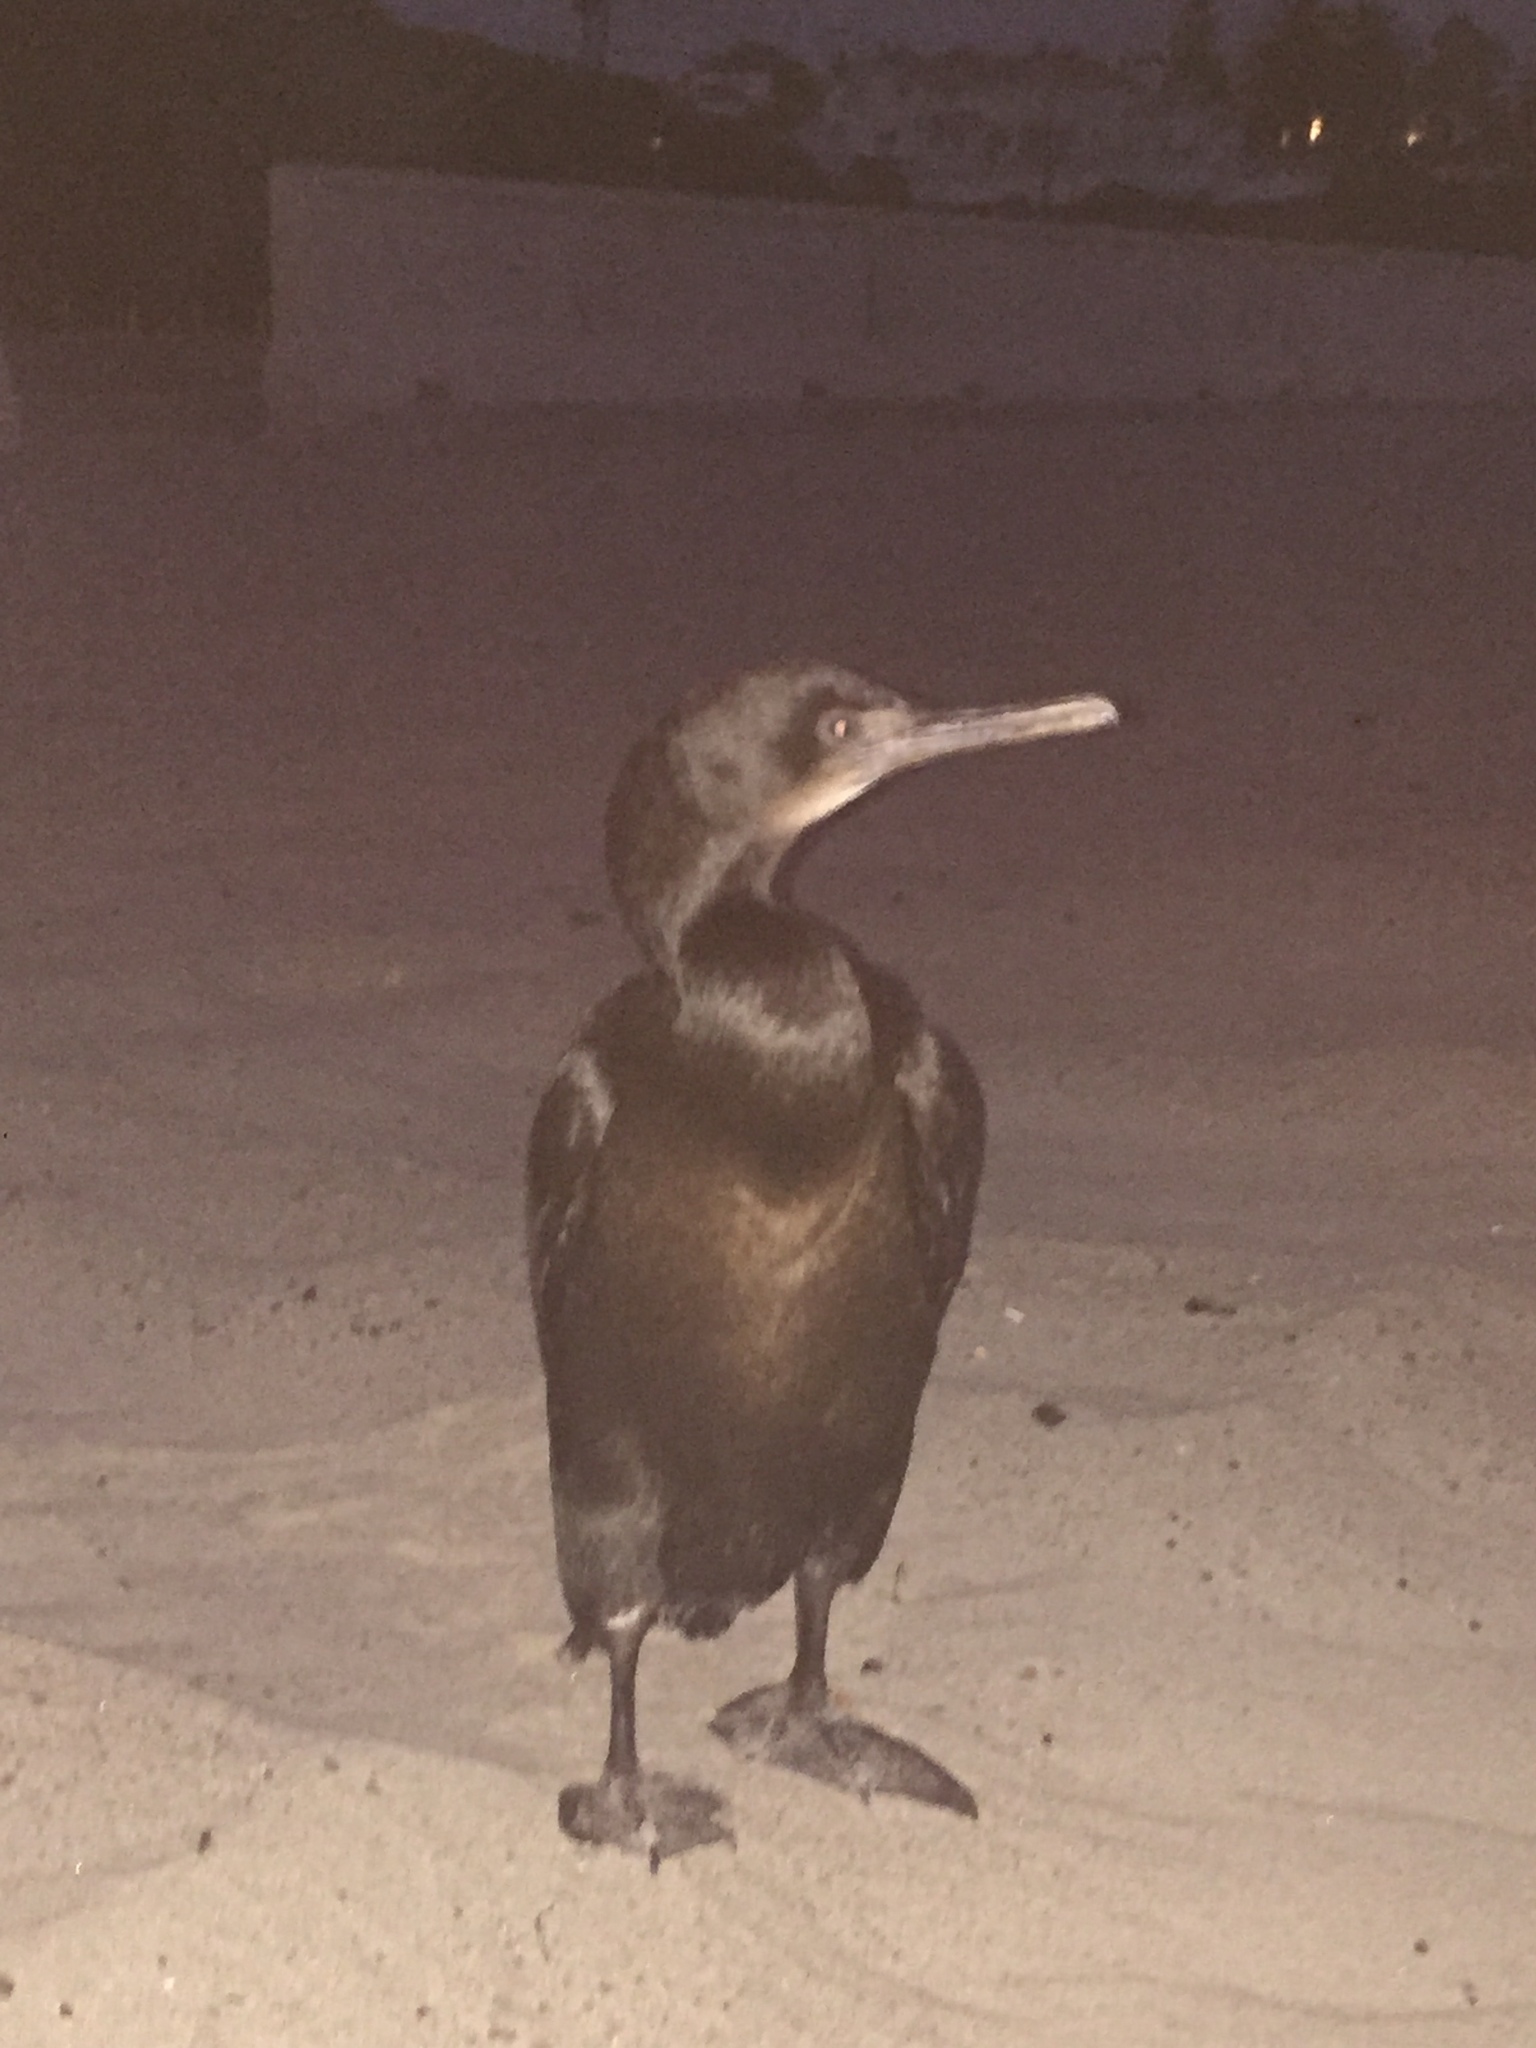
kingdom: Animalia
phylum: Chordata
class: Aves
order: Suliformes
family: Phalacrocoracidae
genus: Urile
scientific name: Urile penicillatus
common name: Brandt's cormorant
